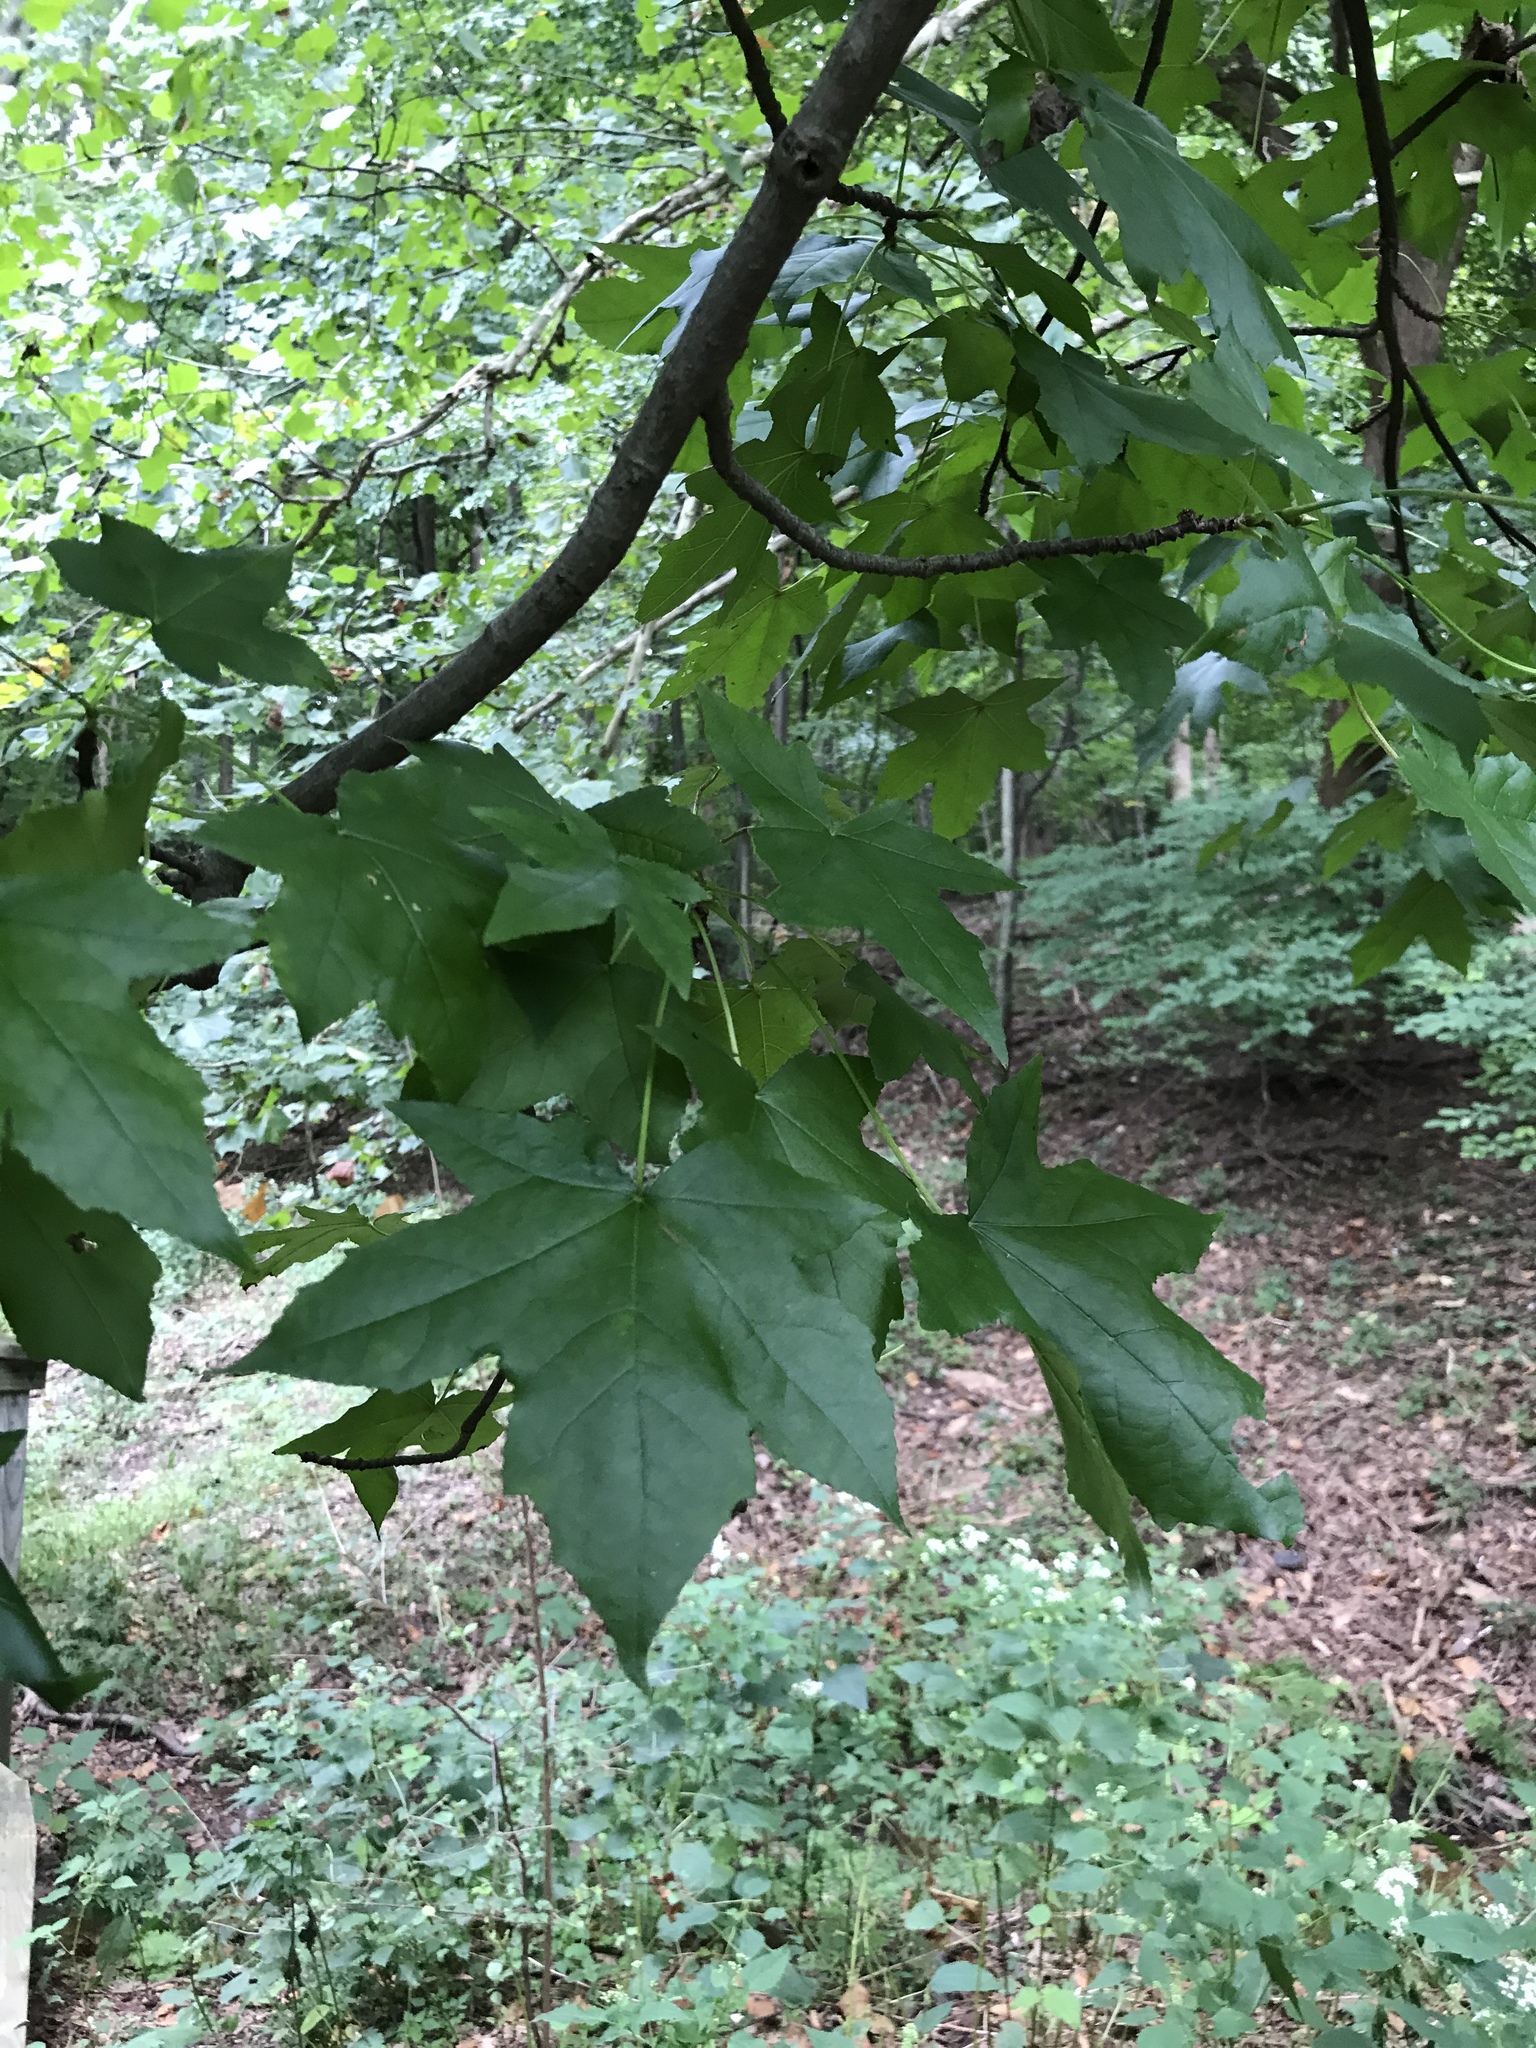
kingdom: Plantae
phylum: Tracheophyta
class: Magnoliopsida
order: Saxifragales
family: Altingiaceae
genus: Liquidambar
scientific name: Liquidambar styraciflua
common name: Sweet gum
